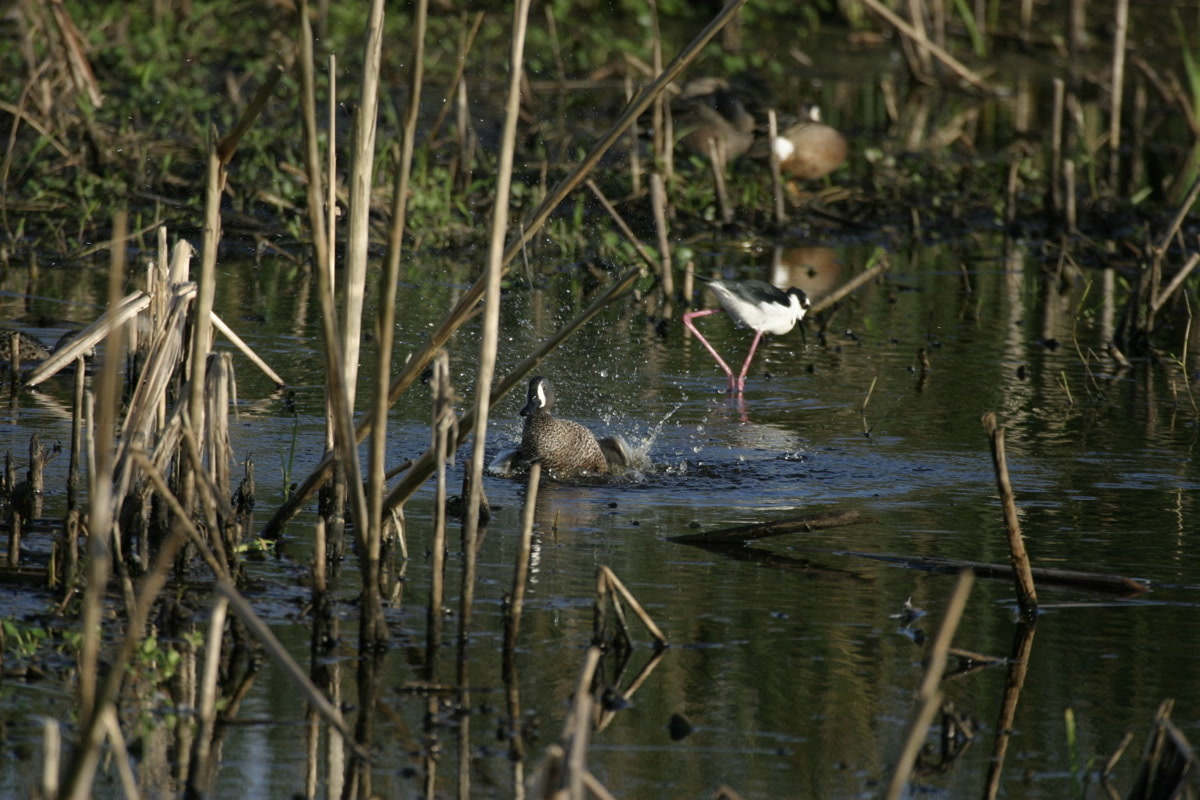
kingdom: Animalia
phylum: Chordata
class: Aves
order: Anseriformes
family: Anatidae
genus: Spatula
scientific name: Spatula discors
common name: Blue-winged teal
